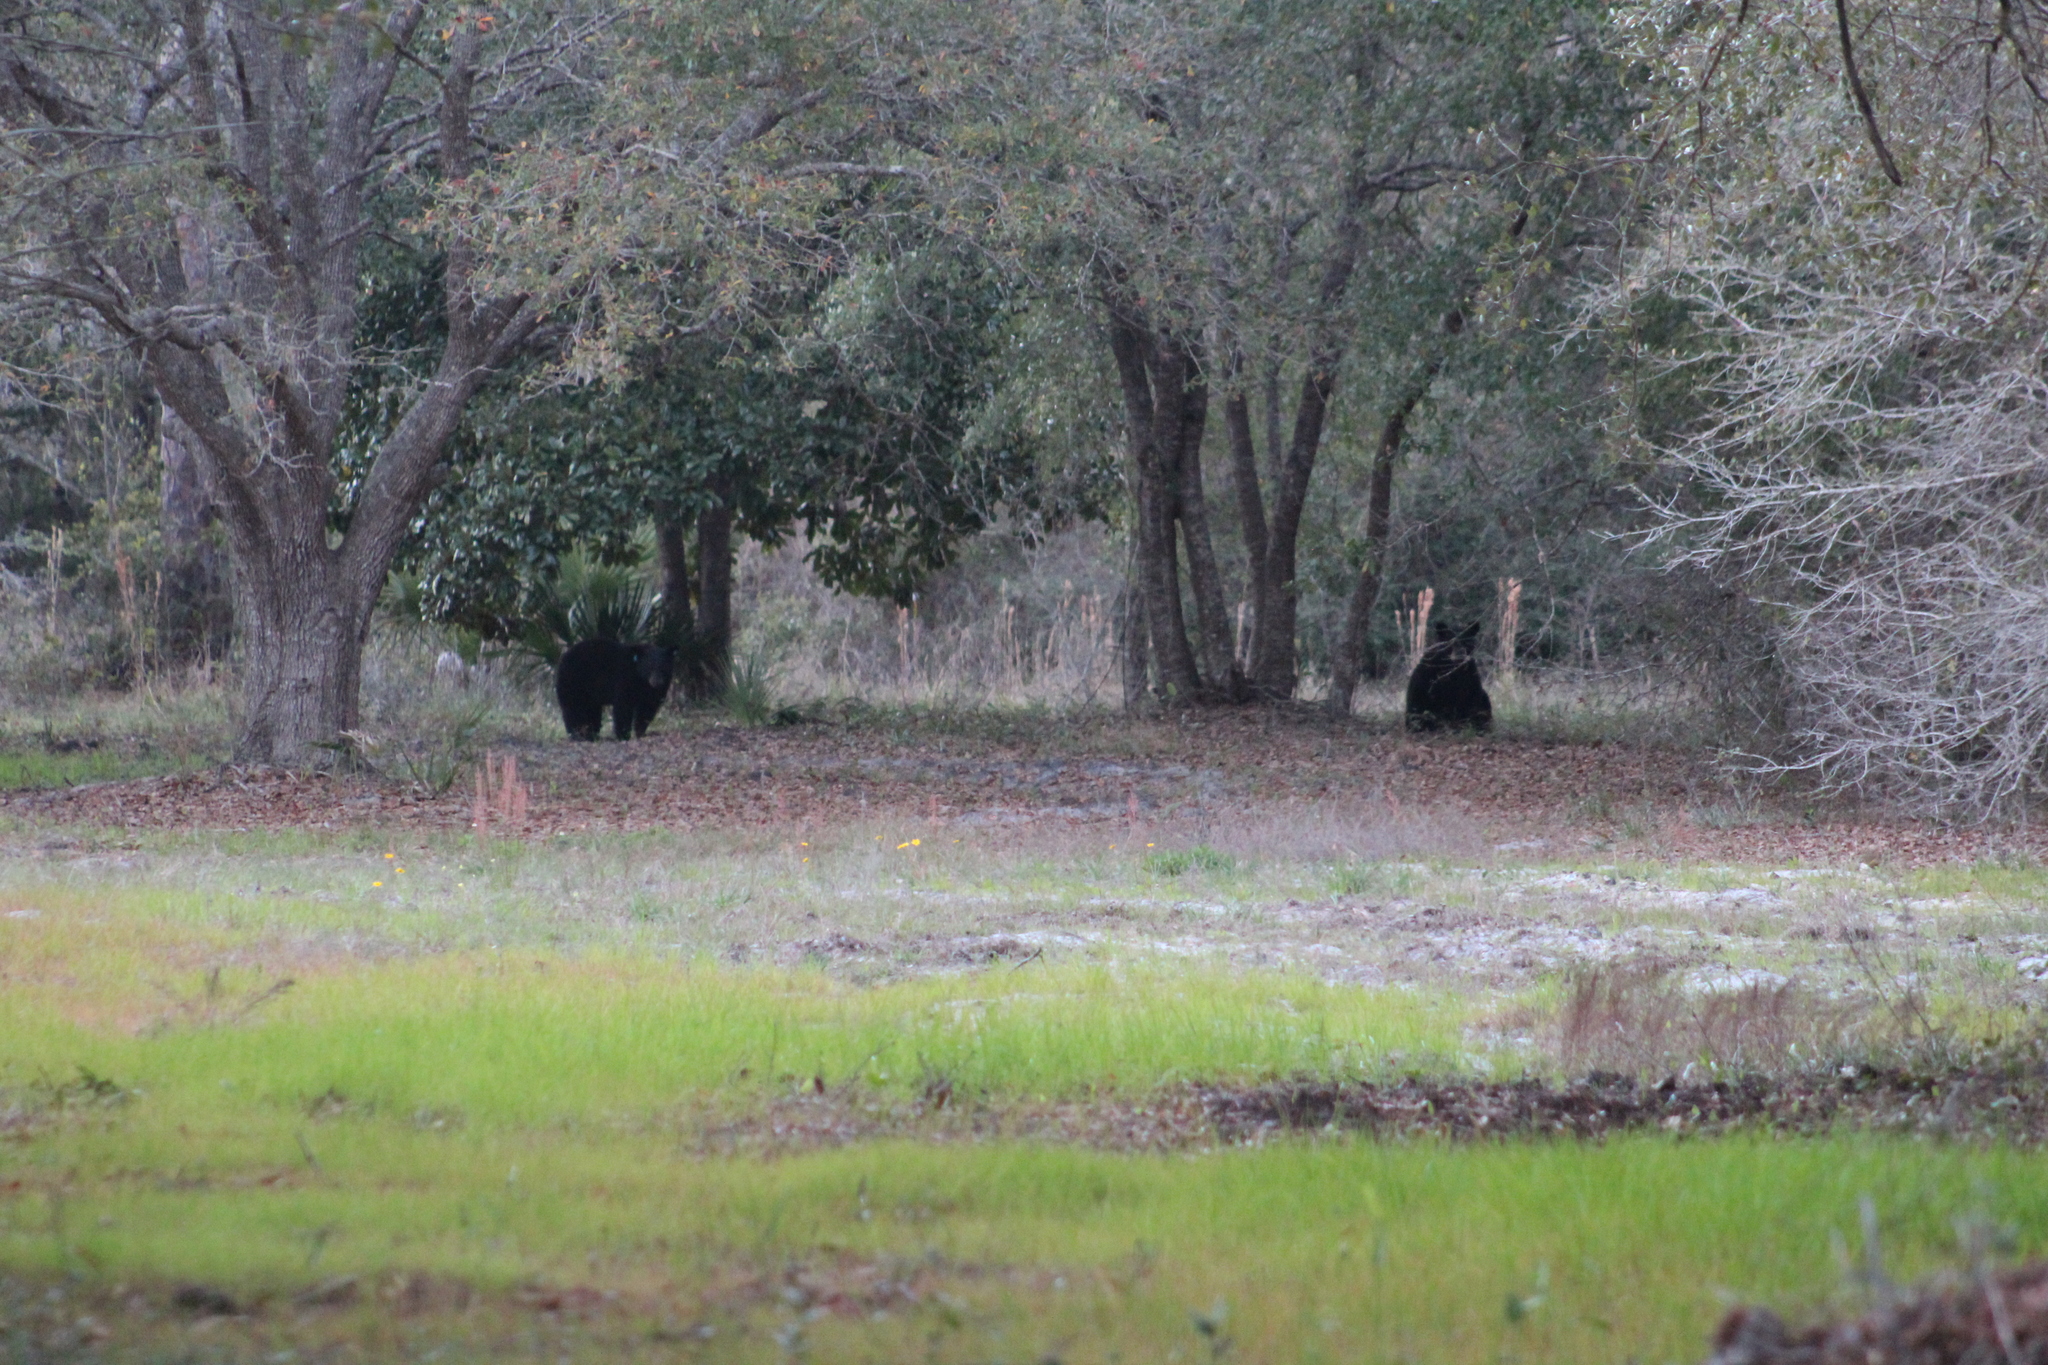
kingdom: Animalia
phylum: Chordata
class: Mammalia
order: Carnivora
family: Ursidae
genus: Ursus
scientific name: Ursus americanus
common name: American black bear
